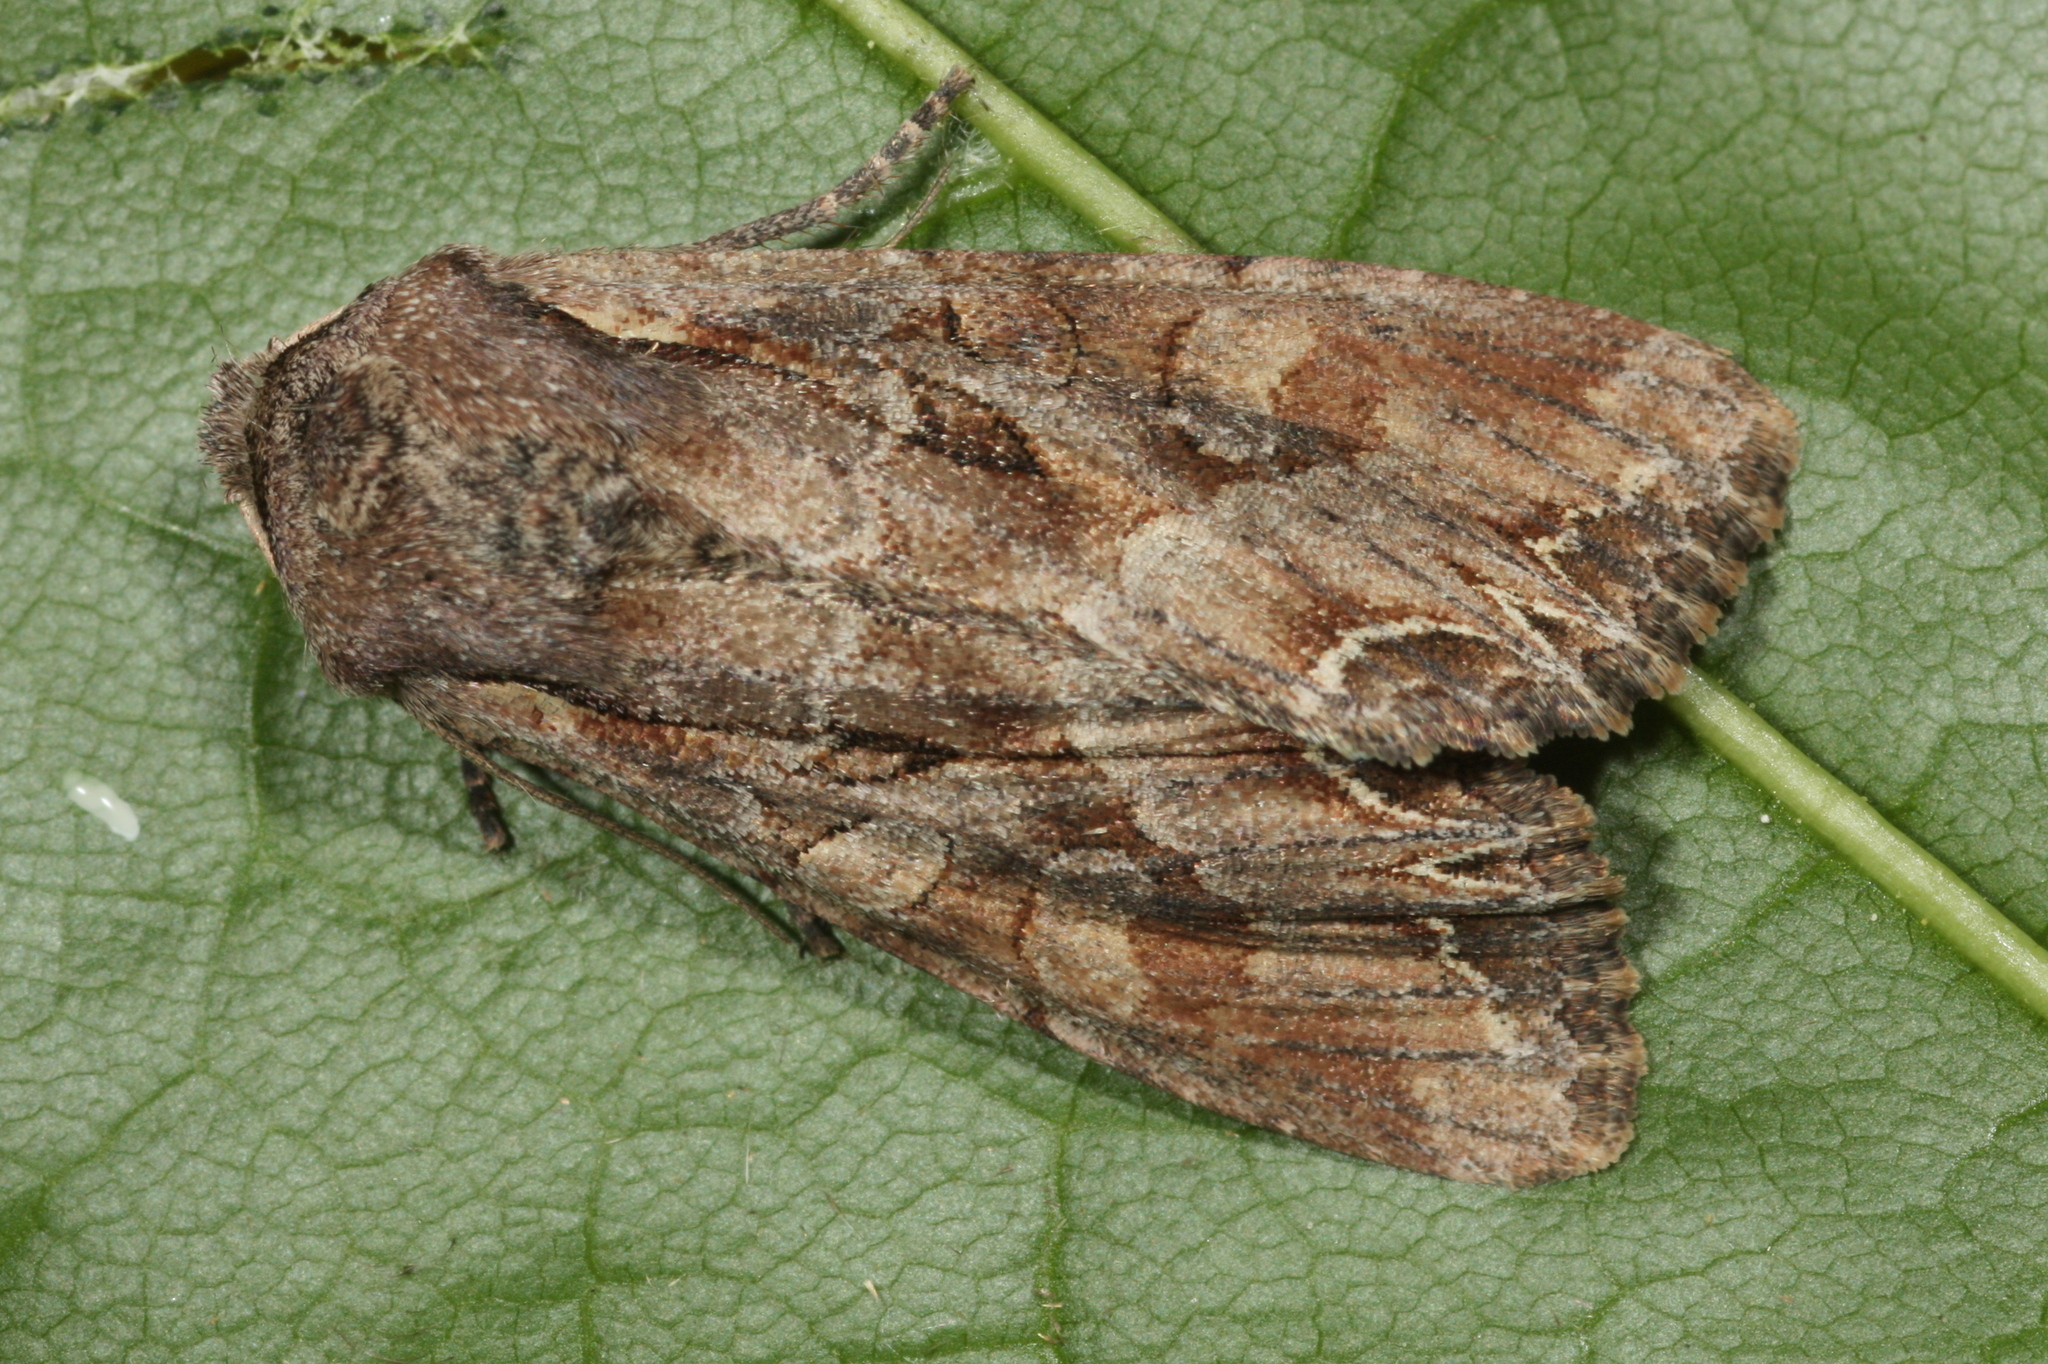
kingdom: Animalia
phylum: Arthropoda
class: Insecta
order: Lepidoptera
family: Noctuidae
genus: Lacanobia
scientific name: Lacanobia suasa
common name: Dog's tooth
